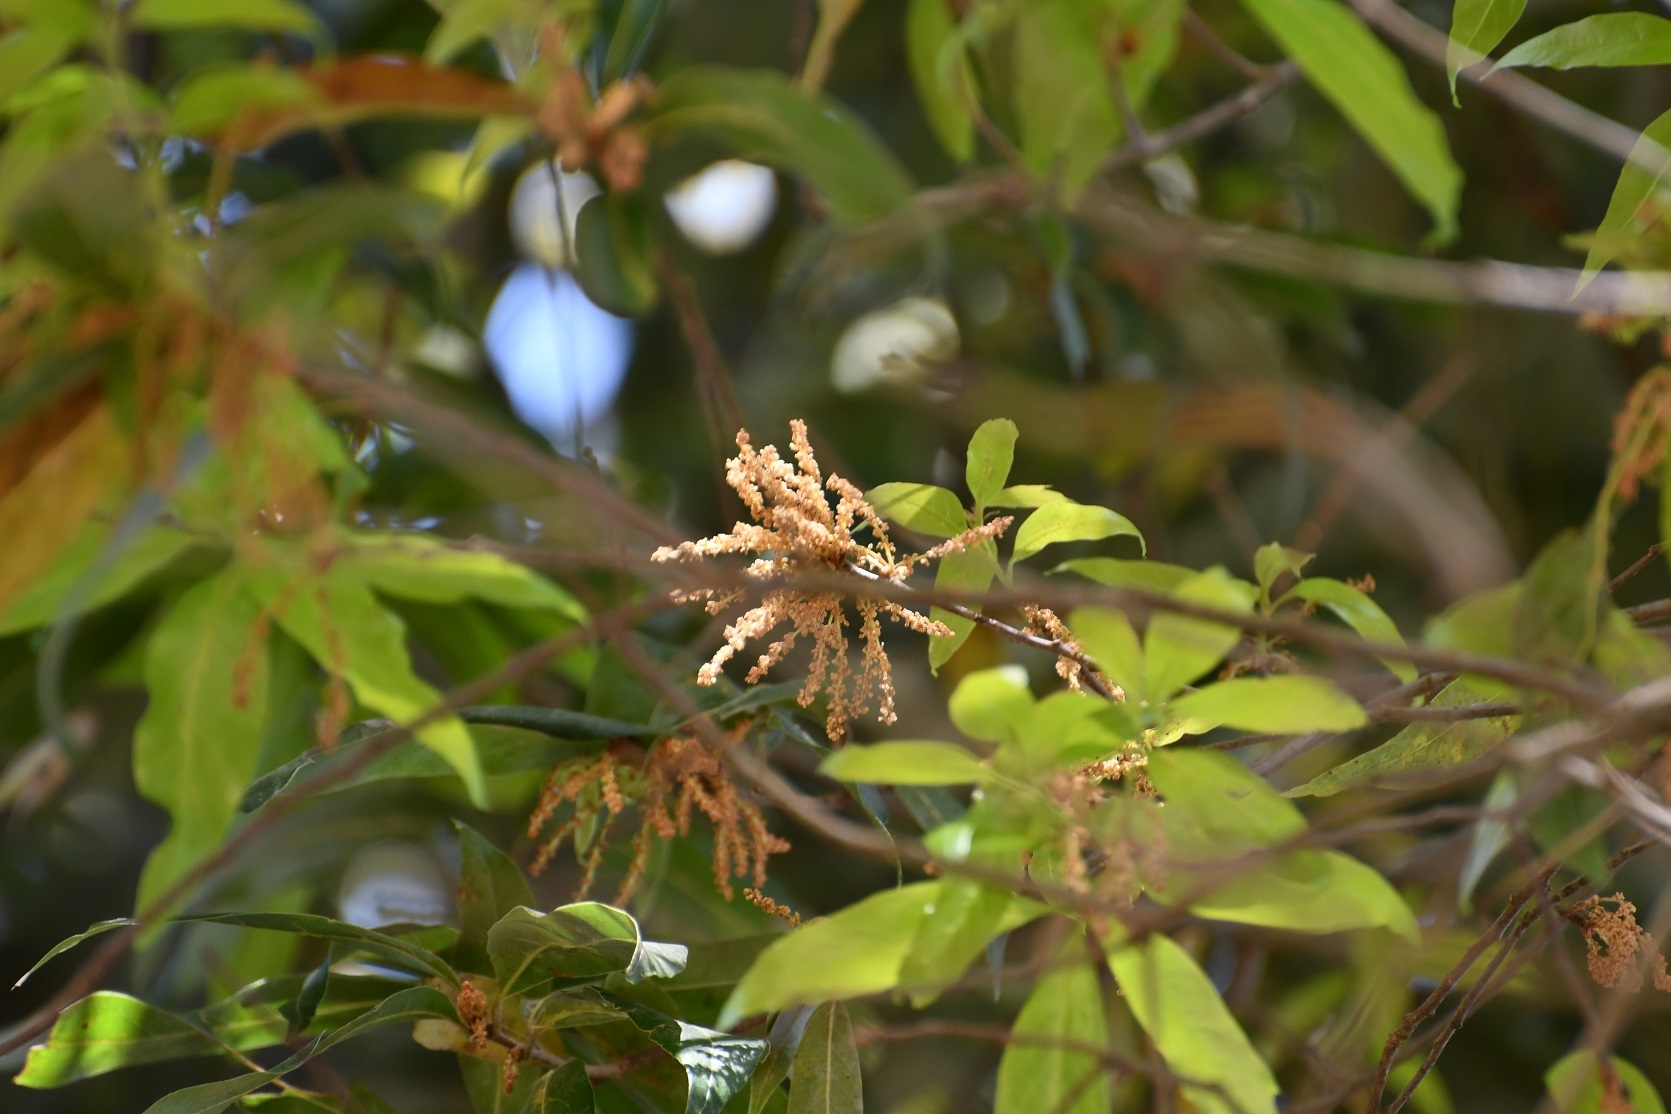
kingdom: Plantae
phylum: Tracheophyta
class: Magnoliopsida
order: Fagales
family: Fagaceae
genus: Quercus
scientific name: Quercus acatenangensis
